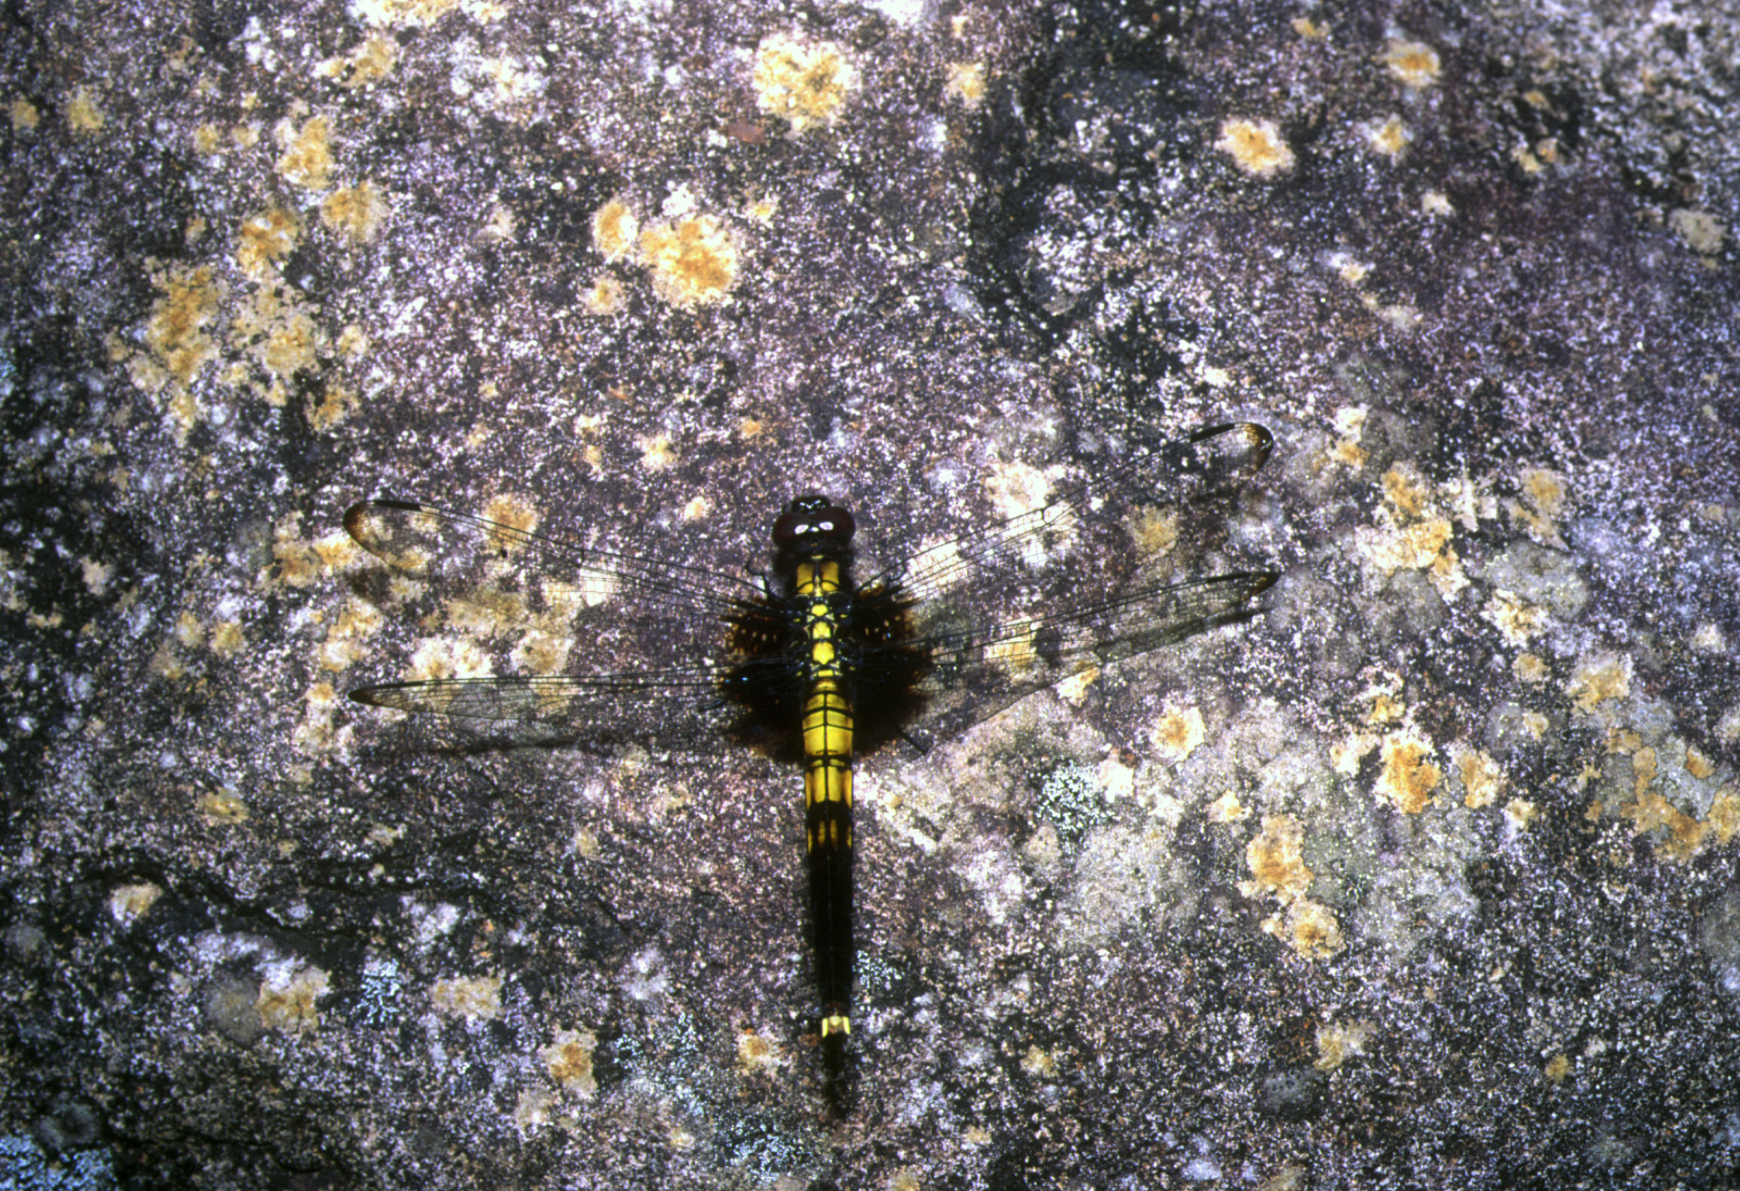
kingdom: Animalia
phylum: Arthropoda
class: Insecta
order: Odonata
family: Libellulidae
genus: Orthetrum
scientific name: Orthetrum melania
